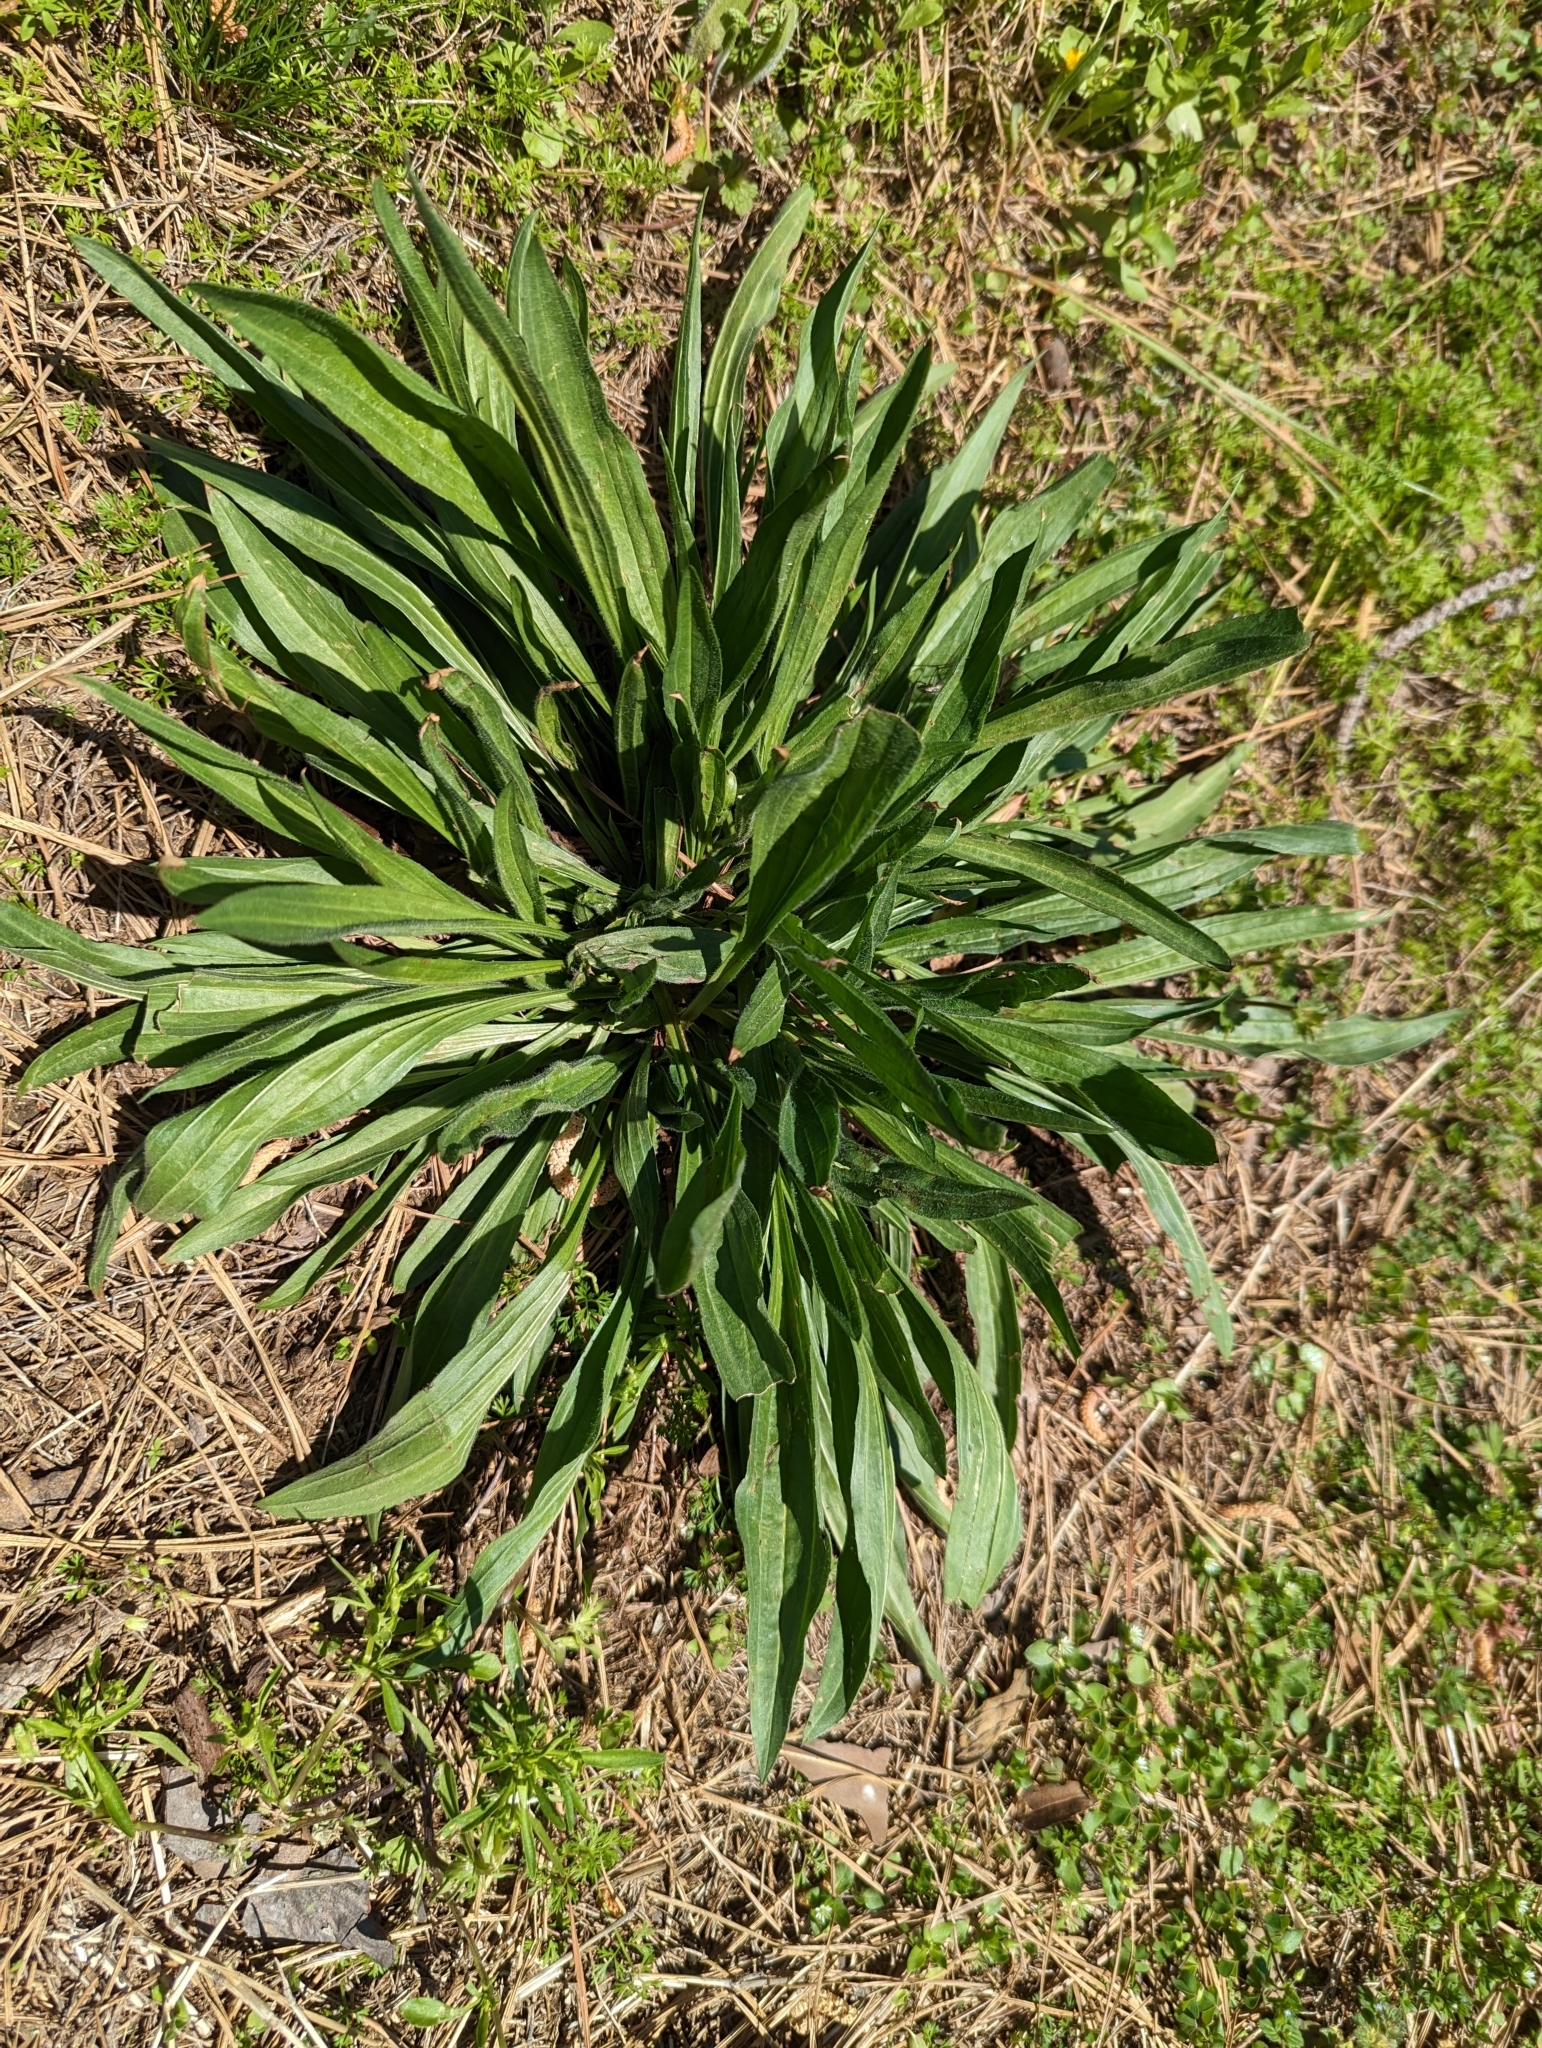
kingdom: Plantae
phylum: Tracheophyta
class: Magnoliopsida
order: Lamiales
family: Plantaginaceae
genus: Plantago
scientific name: Plantago lanceolata
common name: Ribwort plantain
